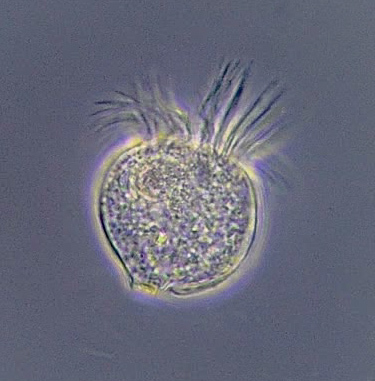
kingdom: Chromista
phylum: Ciliophora
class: Oligotrichea
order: Choreotrichida
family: Strobilidiidae
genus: Strobilidium
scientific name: Strobilidium
